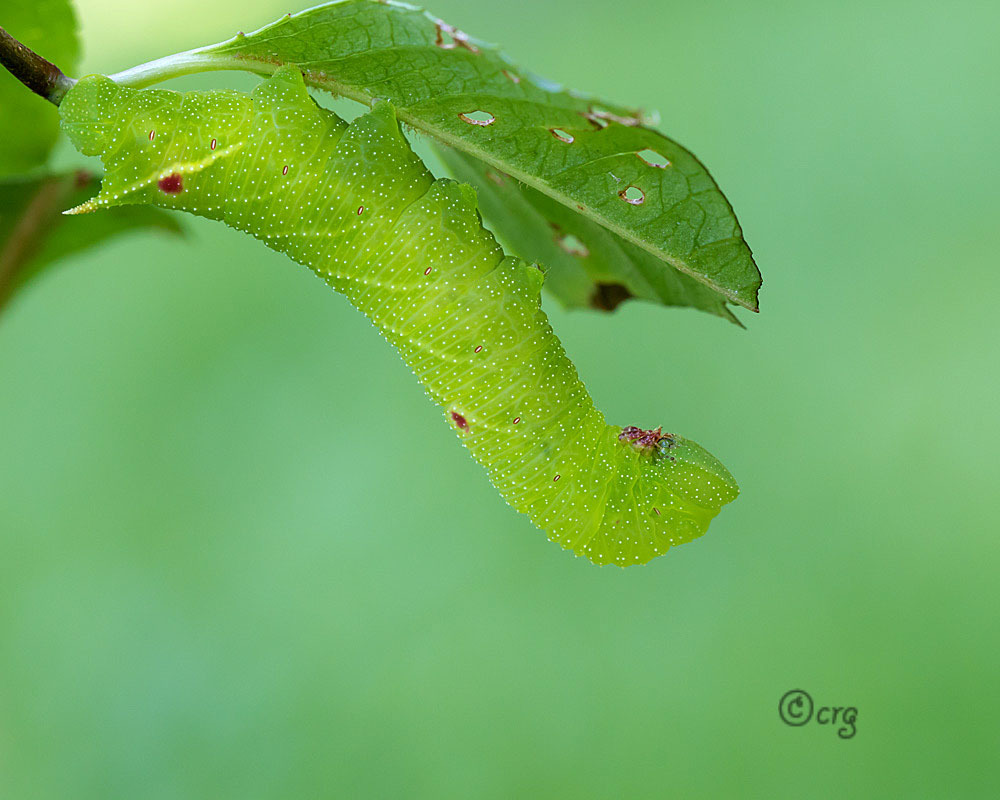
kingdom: Animalia
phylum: Arthropoda
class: Insecta
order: Lepidoptera
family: Sphingidae
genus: Paonias
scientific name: Paonias myops
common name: Small-eyed sphinx
